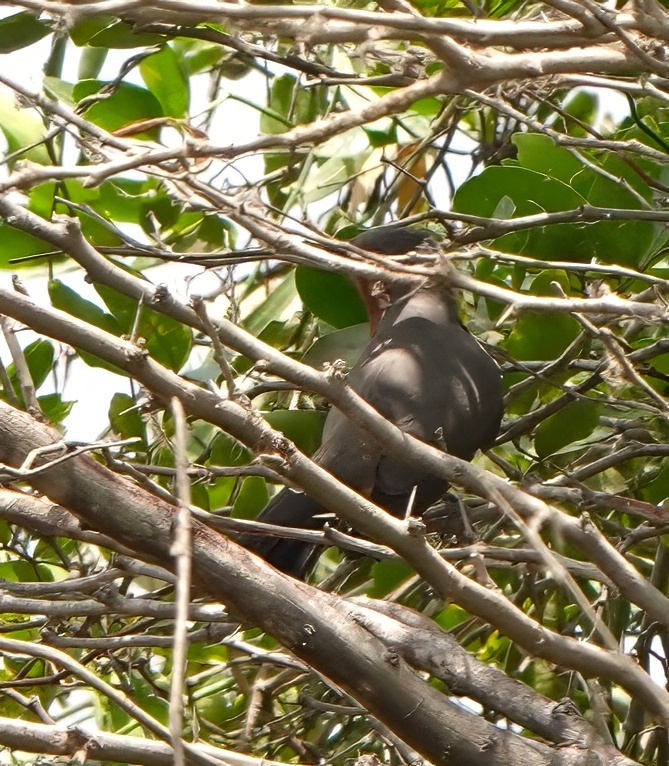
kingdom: Animalia
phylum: Chordata
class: Aves
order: Cuculiformes
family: Cuculidae
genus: Coccyzus
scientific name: Coccyzus pumilus
